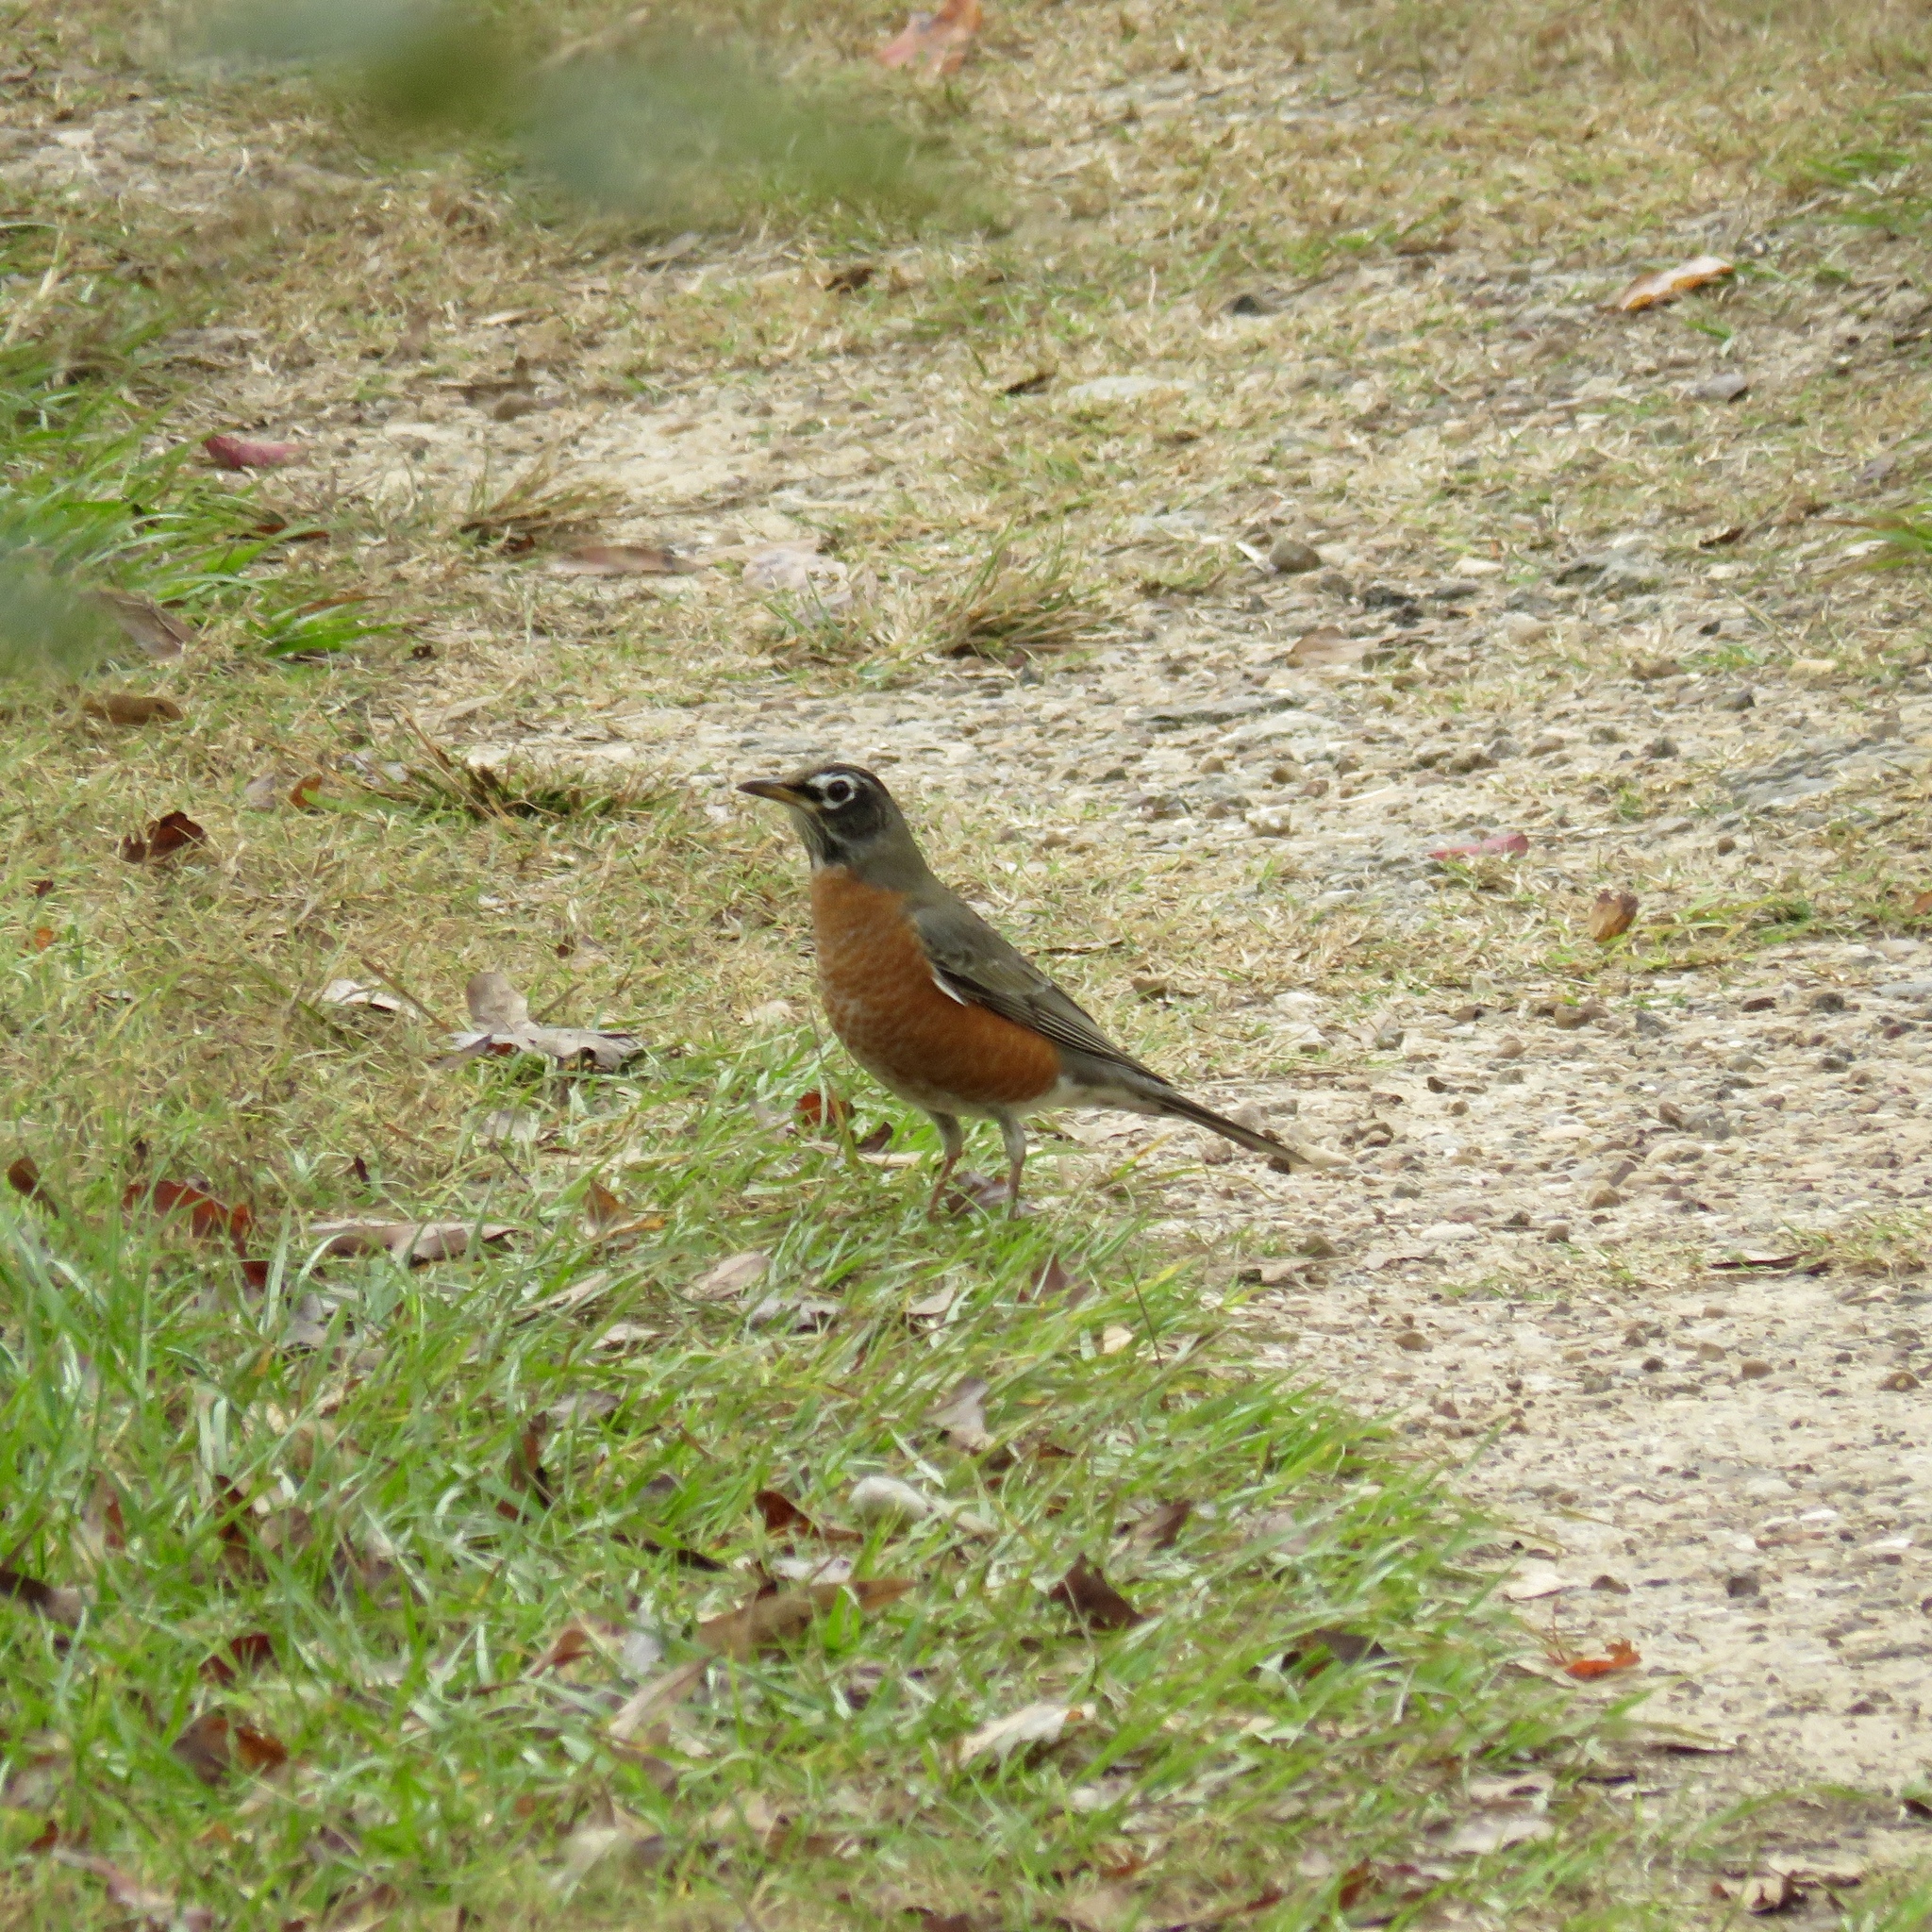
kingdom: Animalia
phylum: Chordata
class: Aves
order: Passeriformes
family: Turdidae
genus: Turdus
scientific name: Turdus migratorius
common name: American robin
